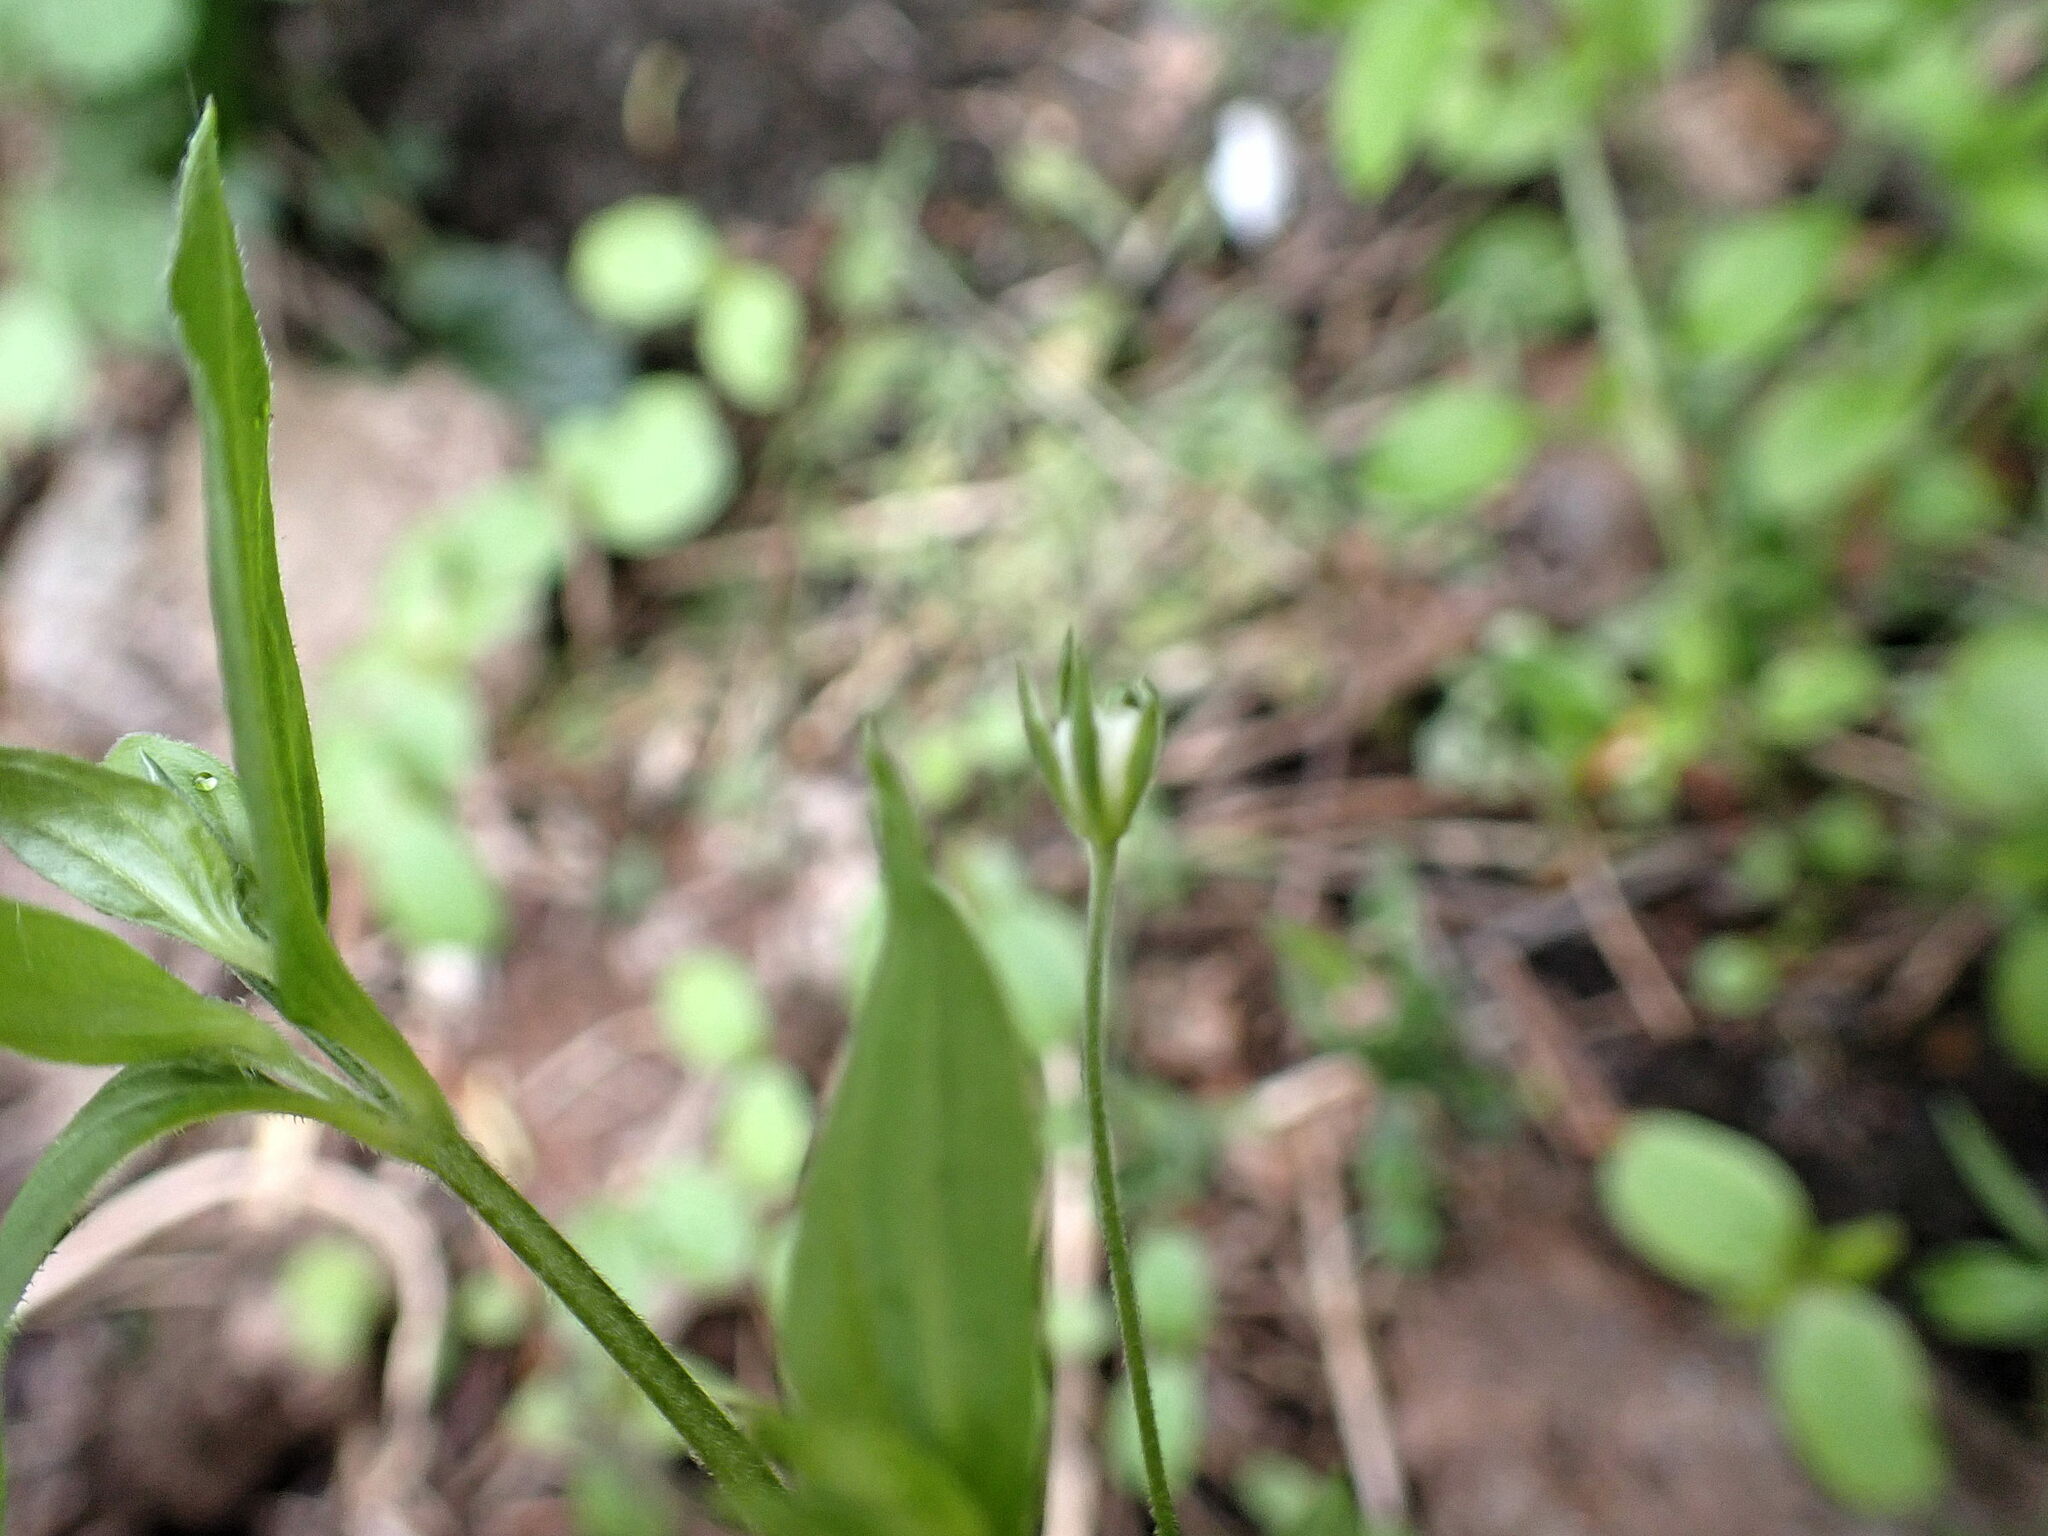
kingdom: Plantae
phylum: Tracheophyta
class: Magnoliopsida
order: Caryophyllales
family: Caryophyllaceae
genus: Moehringia
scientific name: Moehringia trinervia
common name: Three-nerved sandwort
